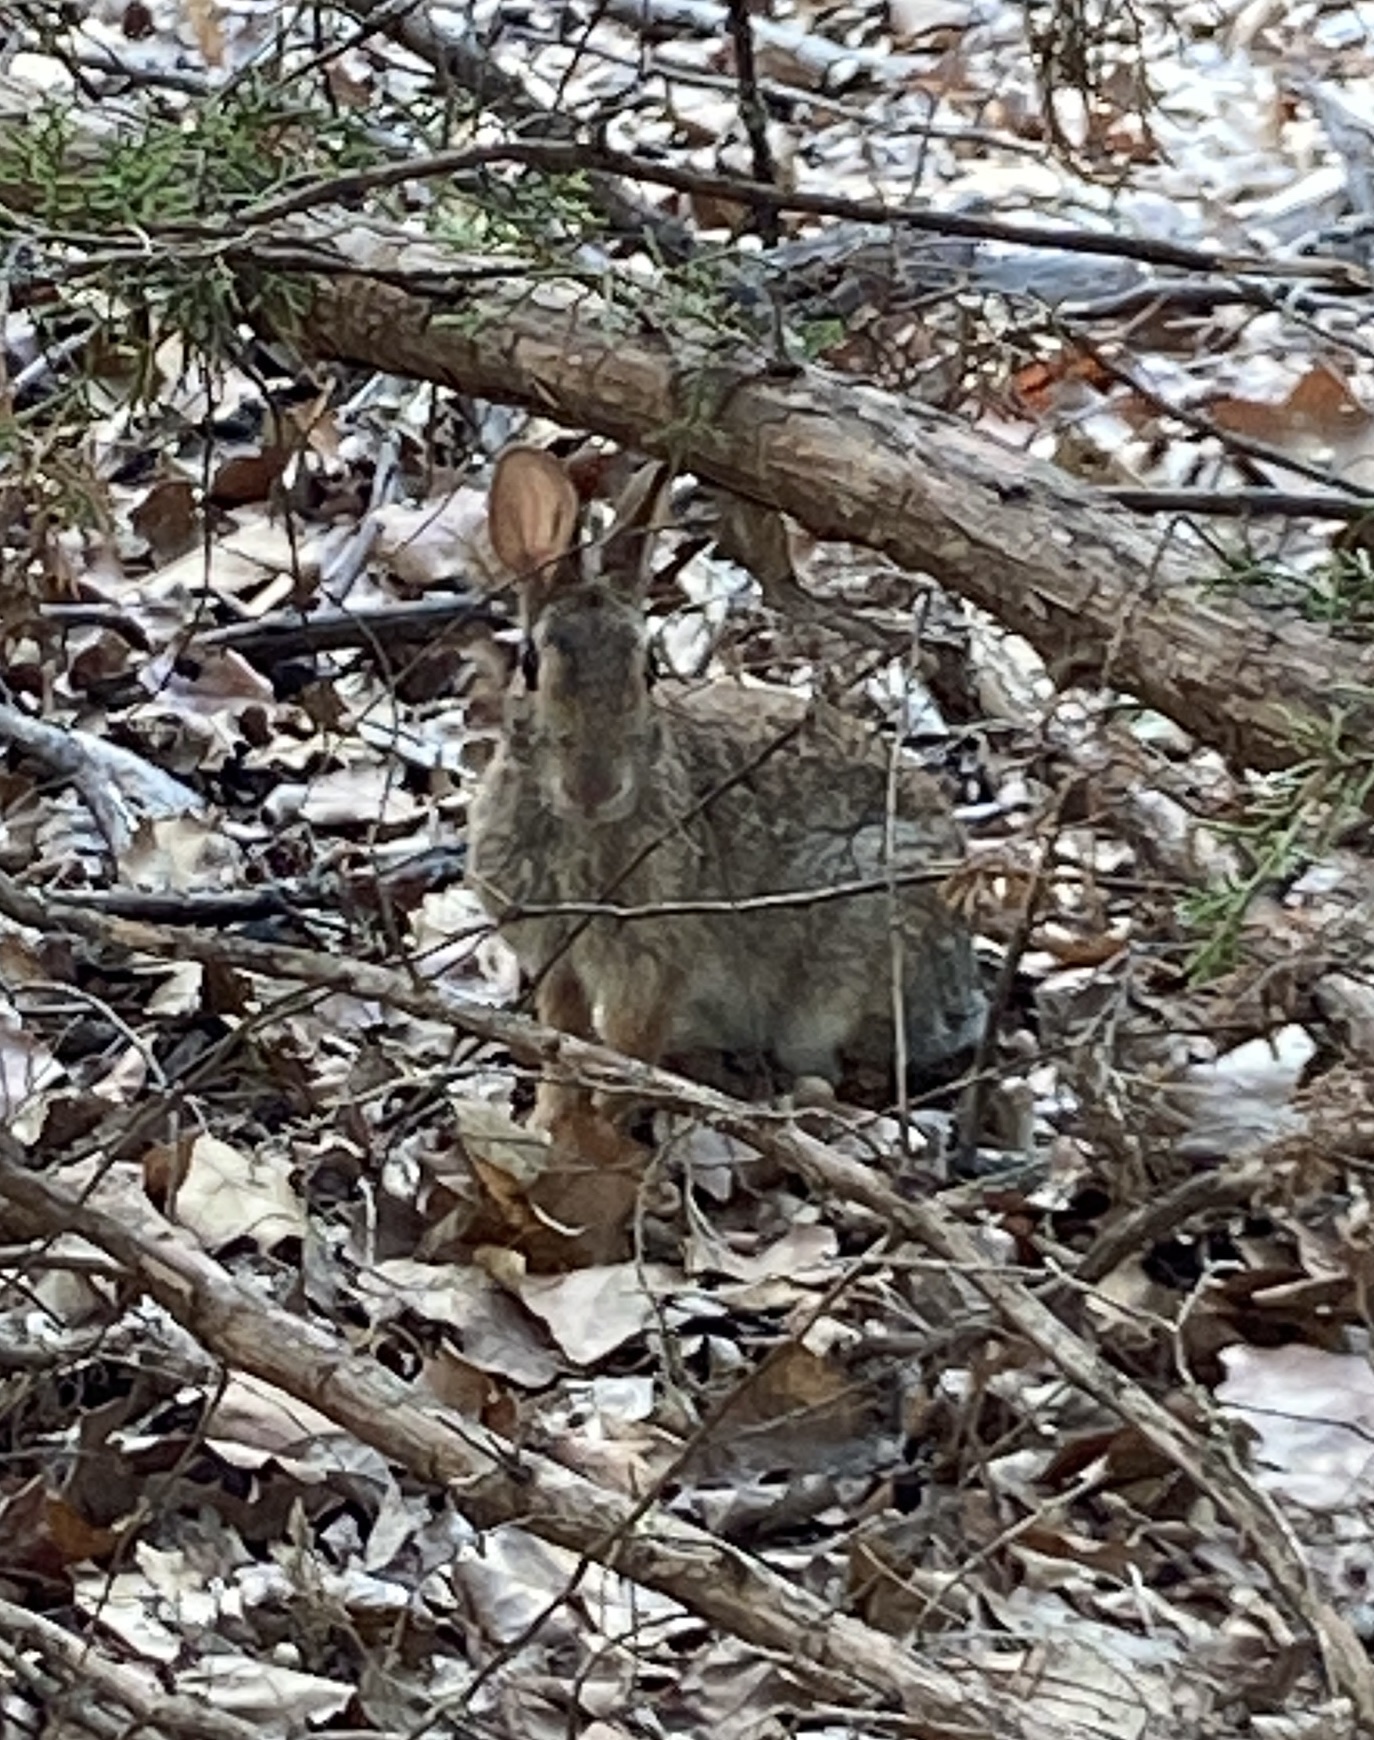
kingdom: Animalia
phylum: Chordata
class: Mammalia
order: Lagomorpha
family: Leporidae
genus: Sylvilagus
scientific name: Sylvilagus floridanus
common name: Eastern cottontail
